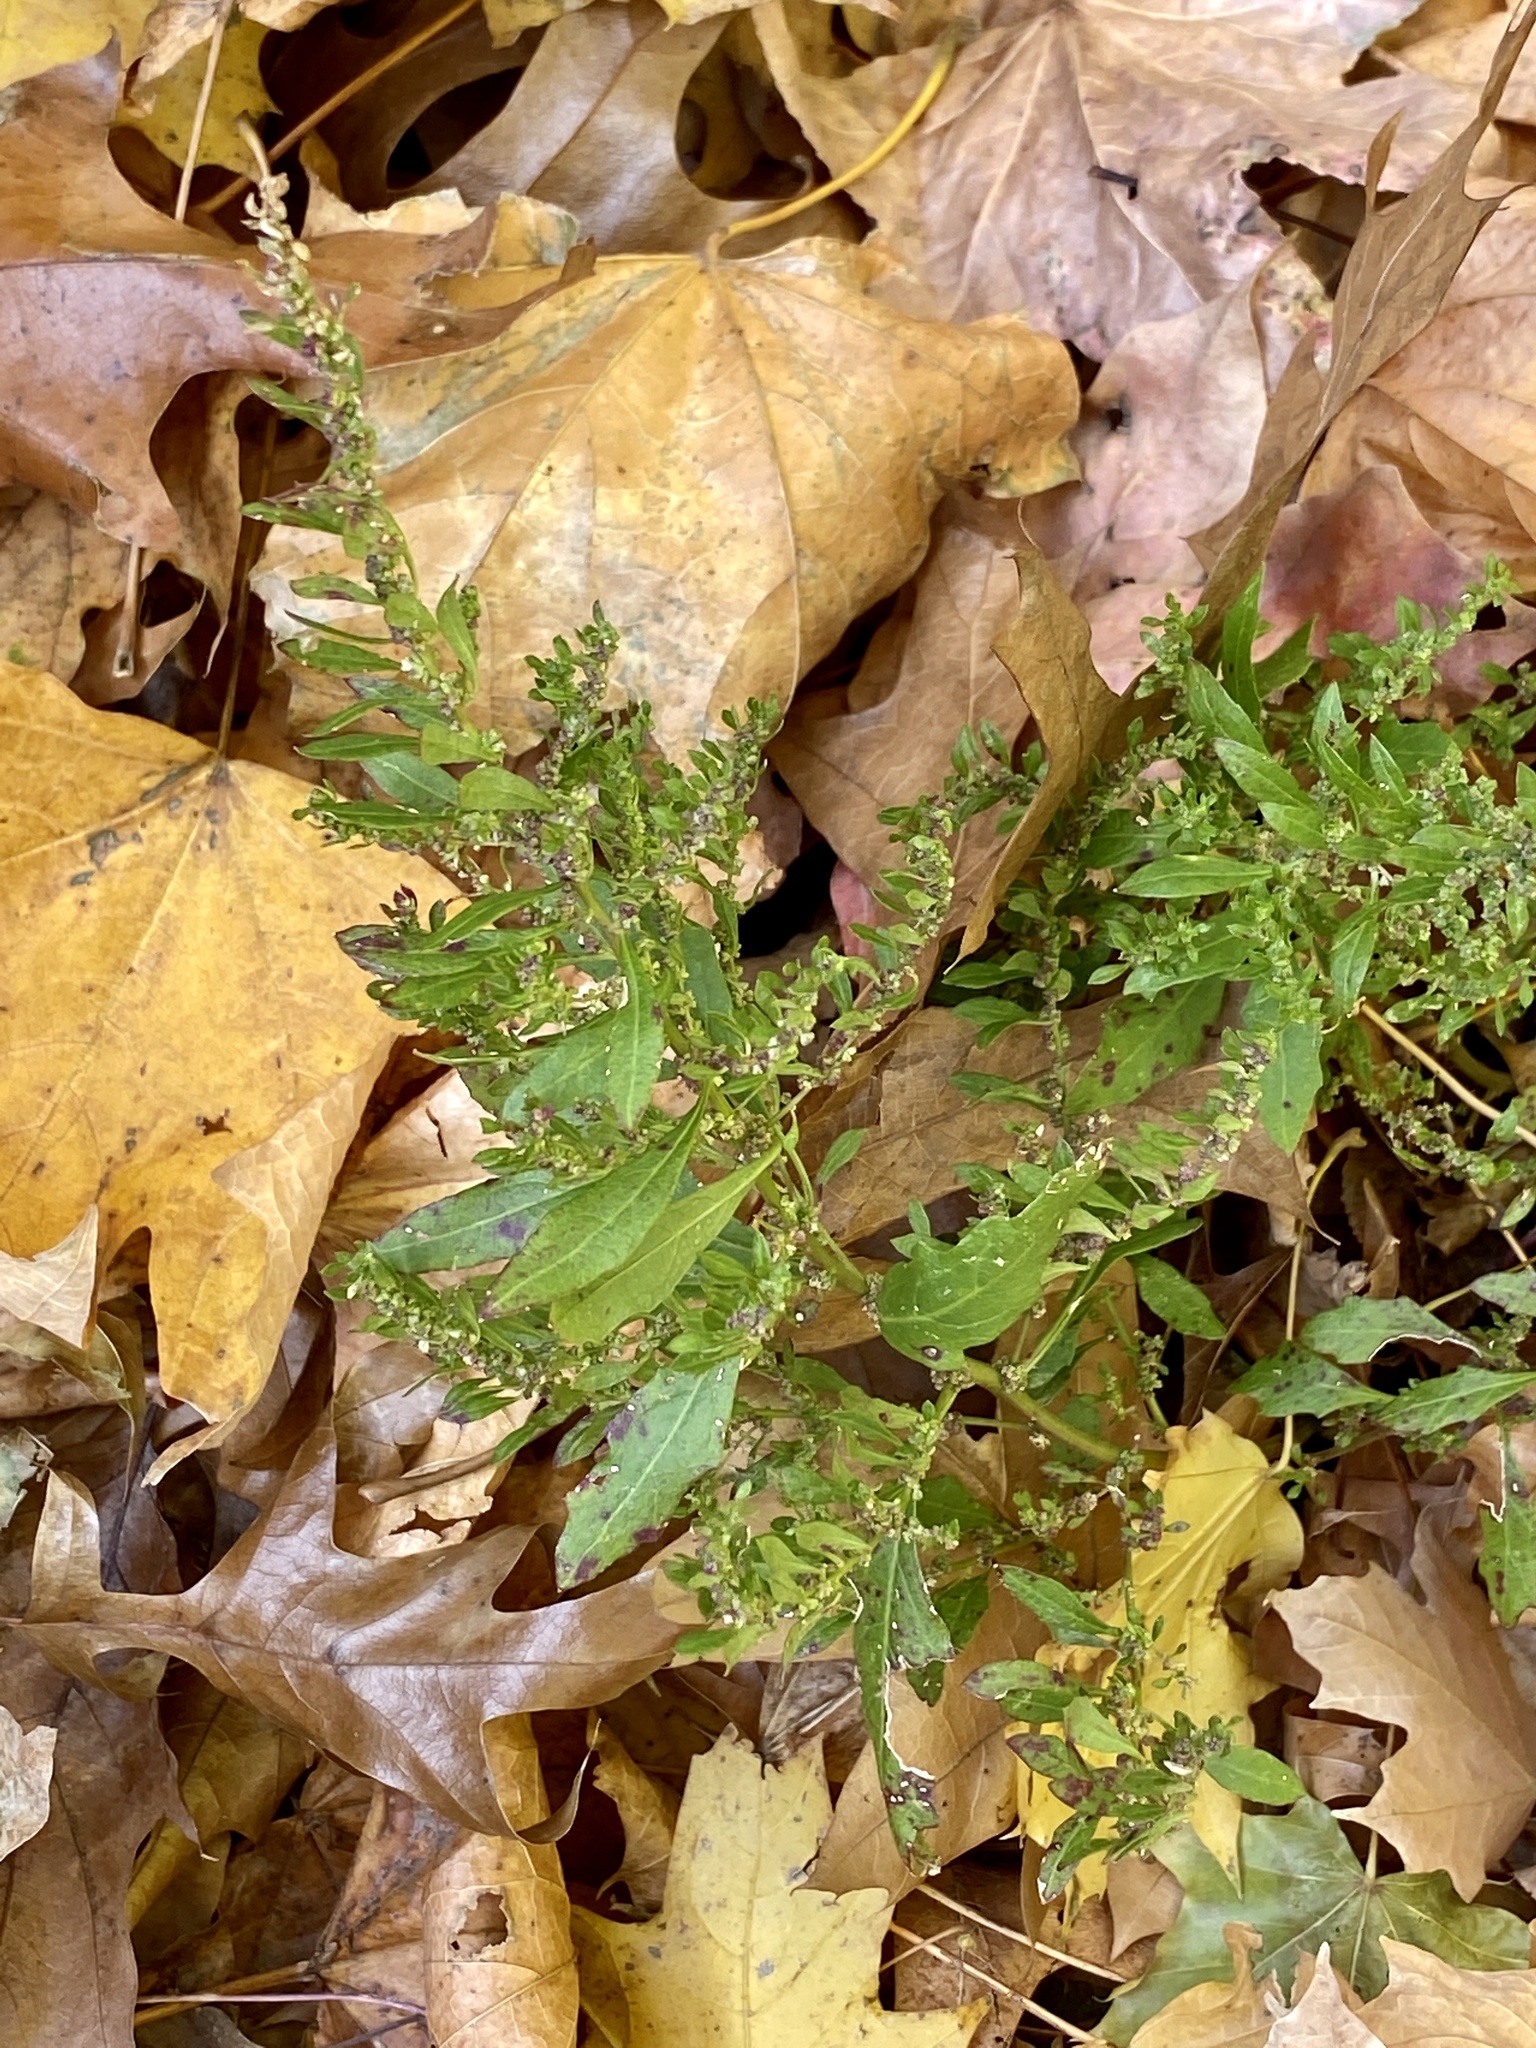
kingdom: Plantae
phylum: Tracheophyta
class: Magnoliopsida
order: Caryophyllales
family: Amaranthaceae
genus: Dysphania
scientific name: Dysphania ambrosioides
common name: Wormseed
